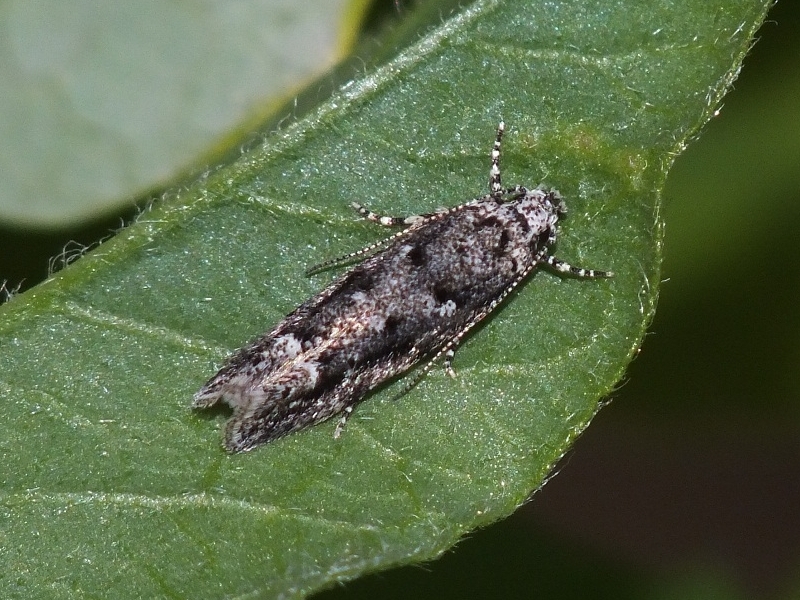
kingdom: Animalia
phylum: Arthropoda
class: Insecta
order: Lepidoptera
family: Gelechiidae
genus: Recurvaria
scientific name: Recurvaria nanella
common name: Gelechiid moth
